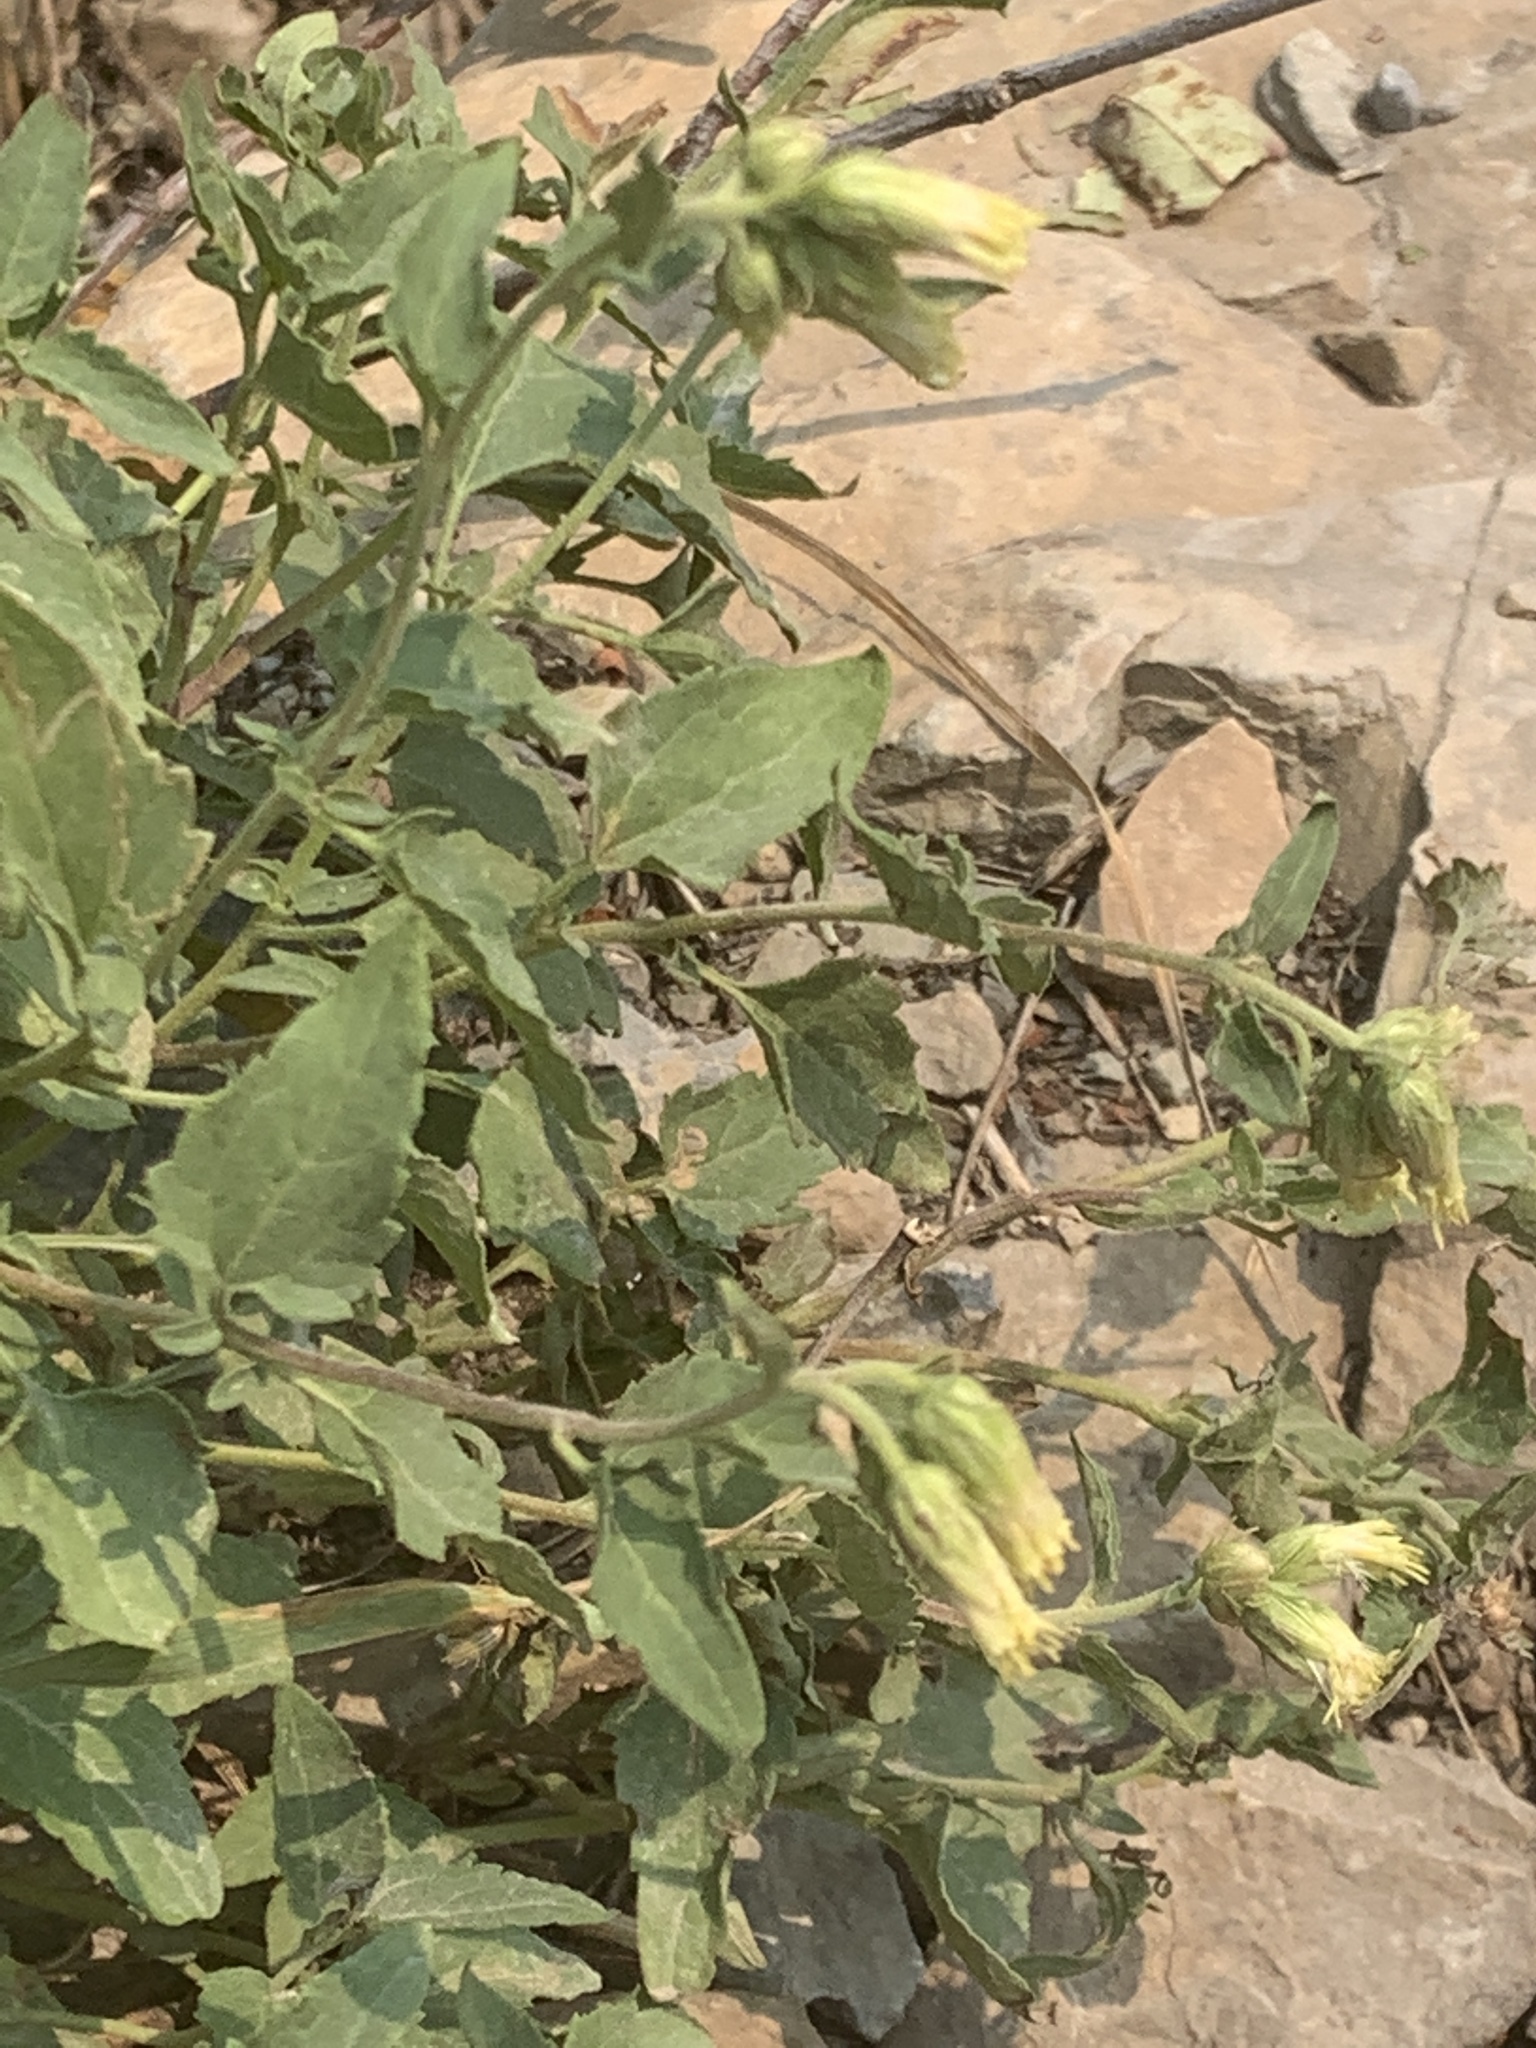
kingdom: Plantae
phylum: Tracheophyta
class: Magnoliopsida
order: Asterales
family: Asteraceae
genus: Brickellia
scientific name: Brickellia grandiflora
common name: Large-flowered brickellia
